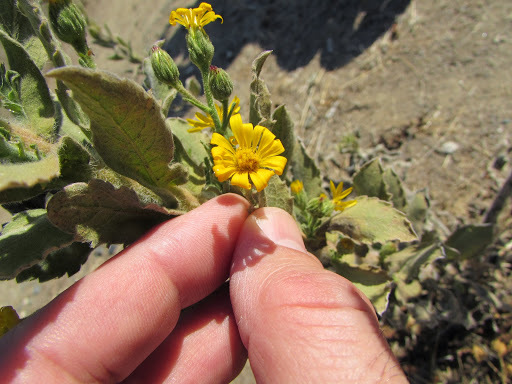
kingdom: Plantae
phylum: Tracheophyta
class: Magnoliopsida
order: Asterales
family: Asteraceae
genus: Heterotheca
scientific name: Heterotheca grandiflora
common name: Telegraphweed
